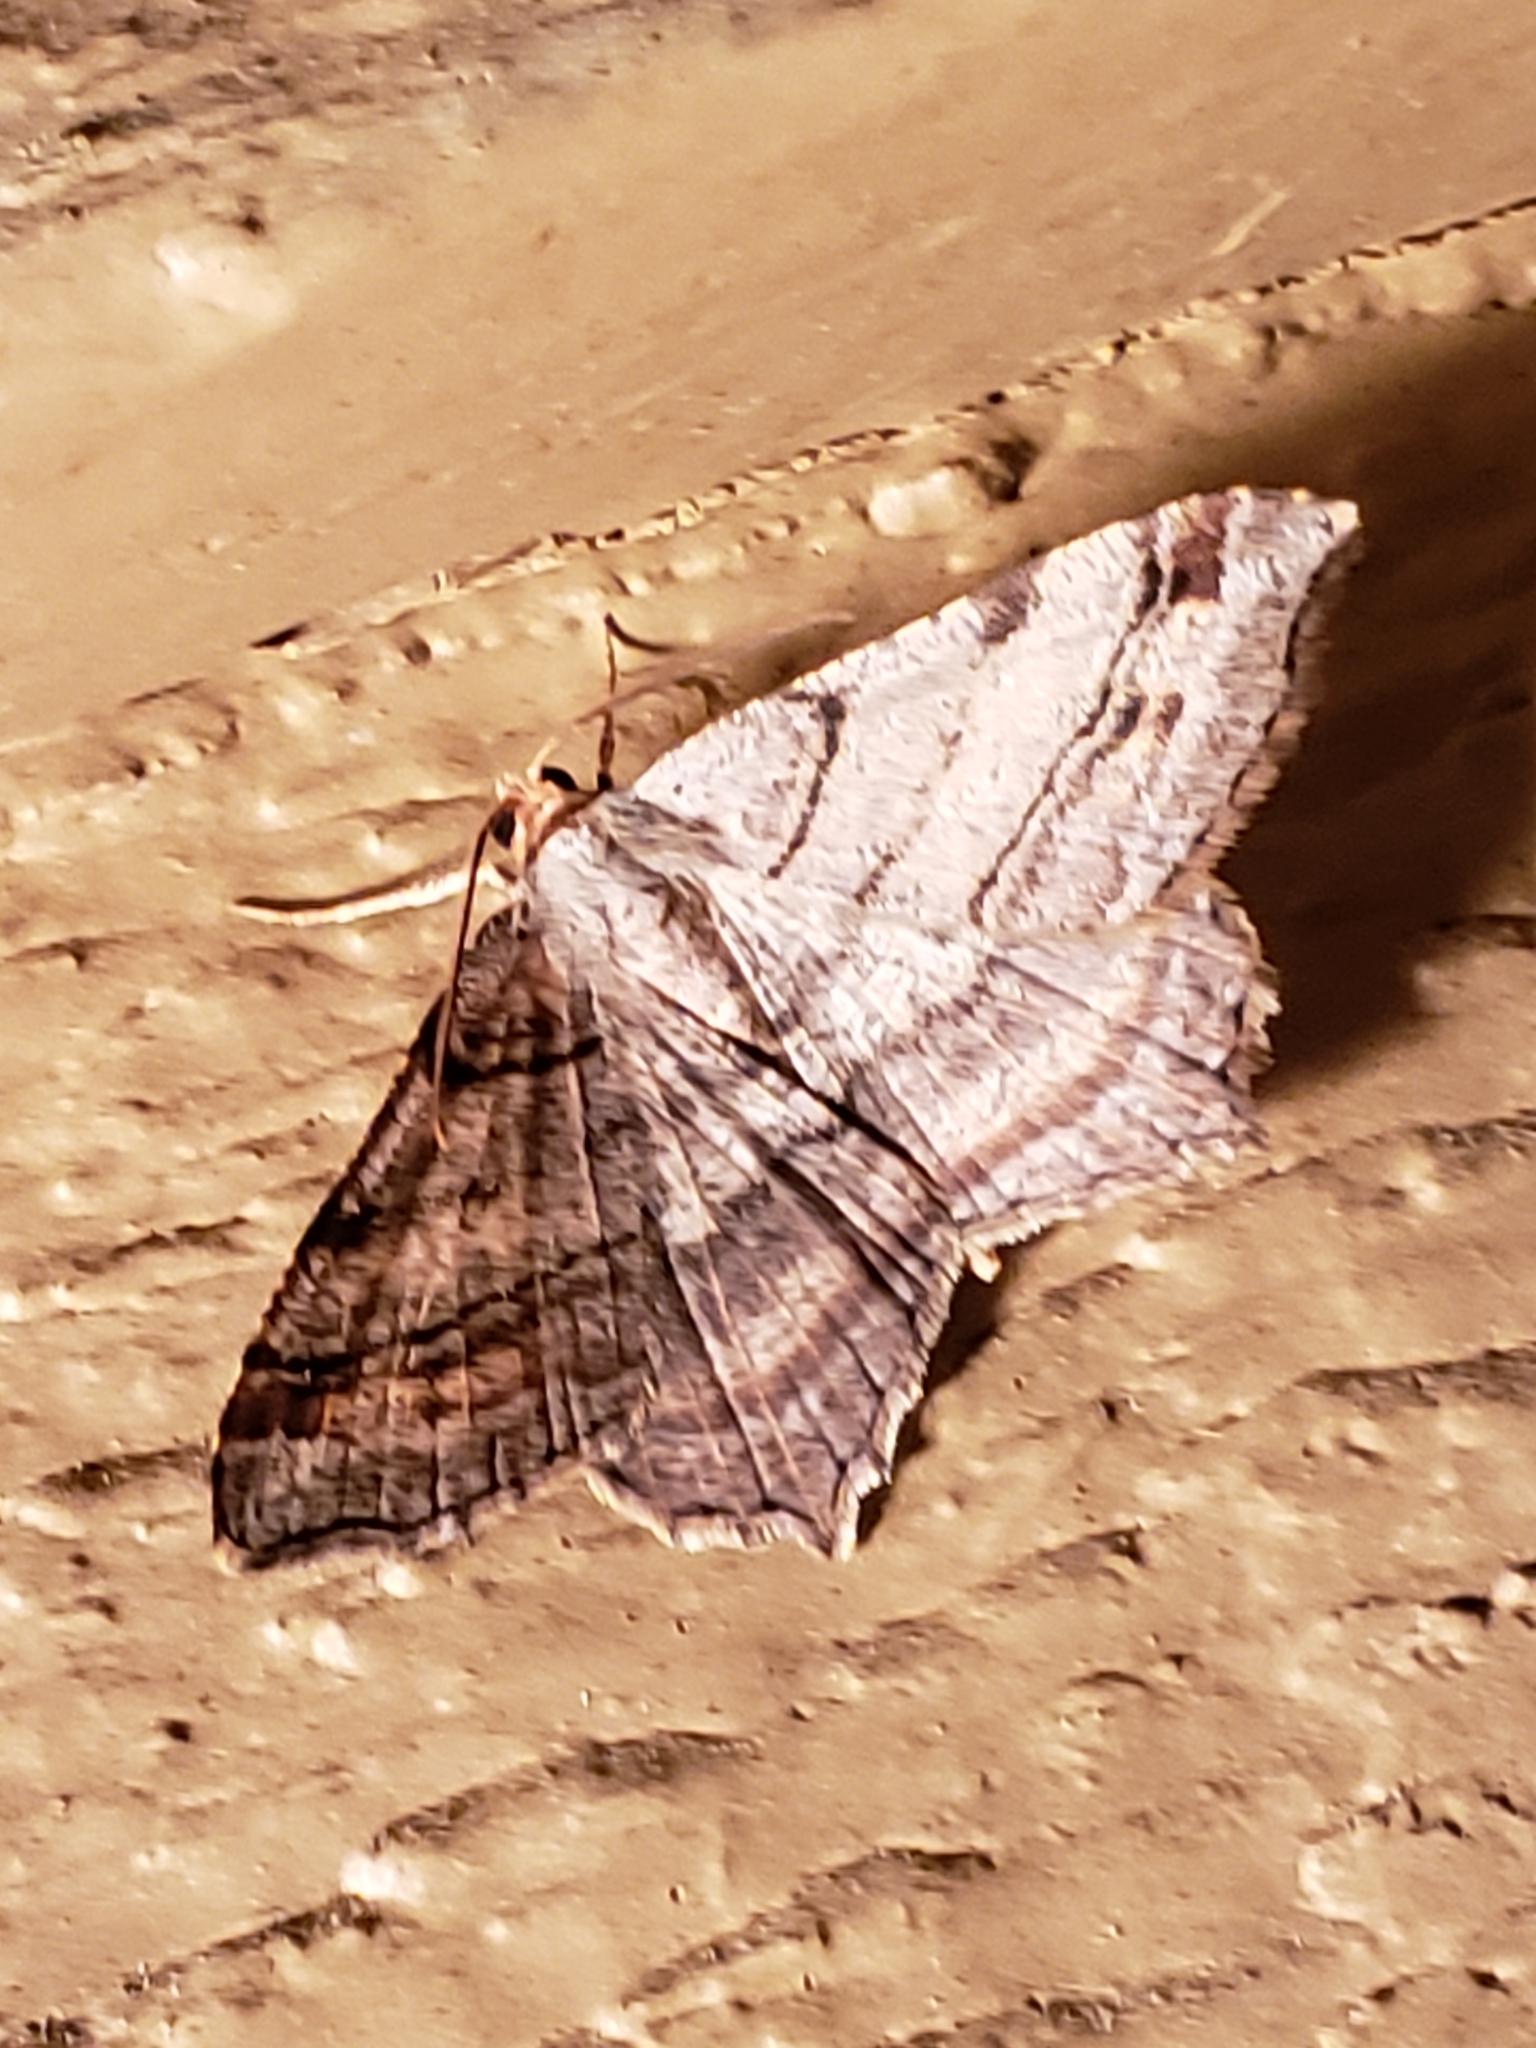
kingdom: Animalia
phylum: Arthropoda
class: Insecta
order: Lepidoptera
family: Geometridae
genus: Macaria
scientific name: Macaria multilineata
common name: Many-lined angle
